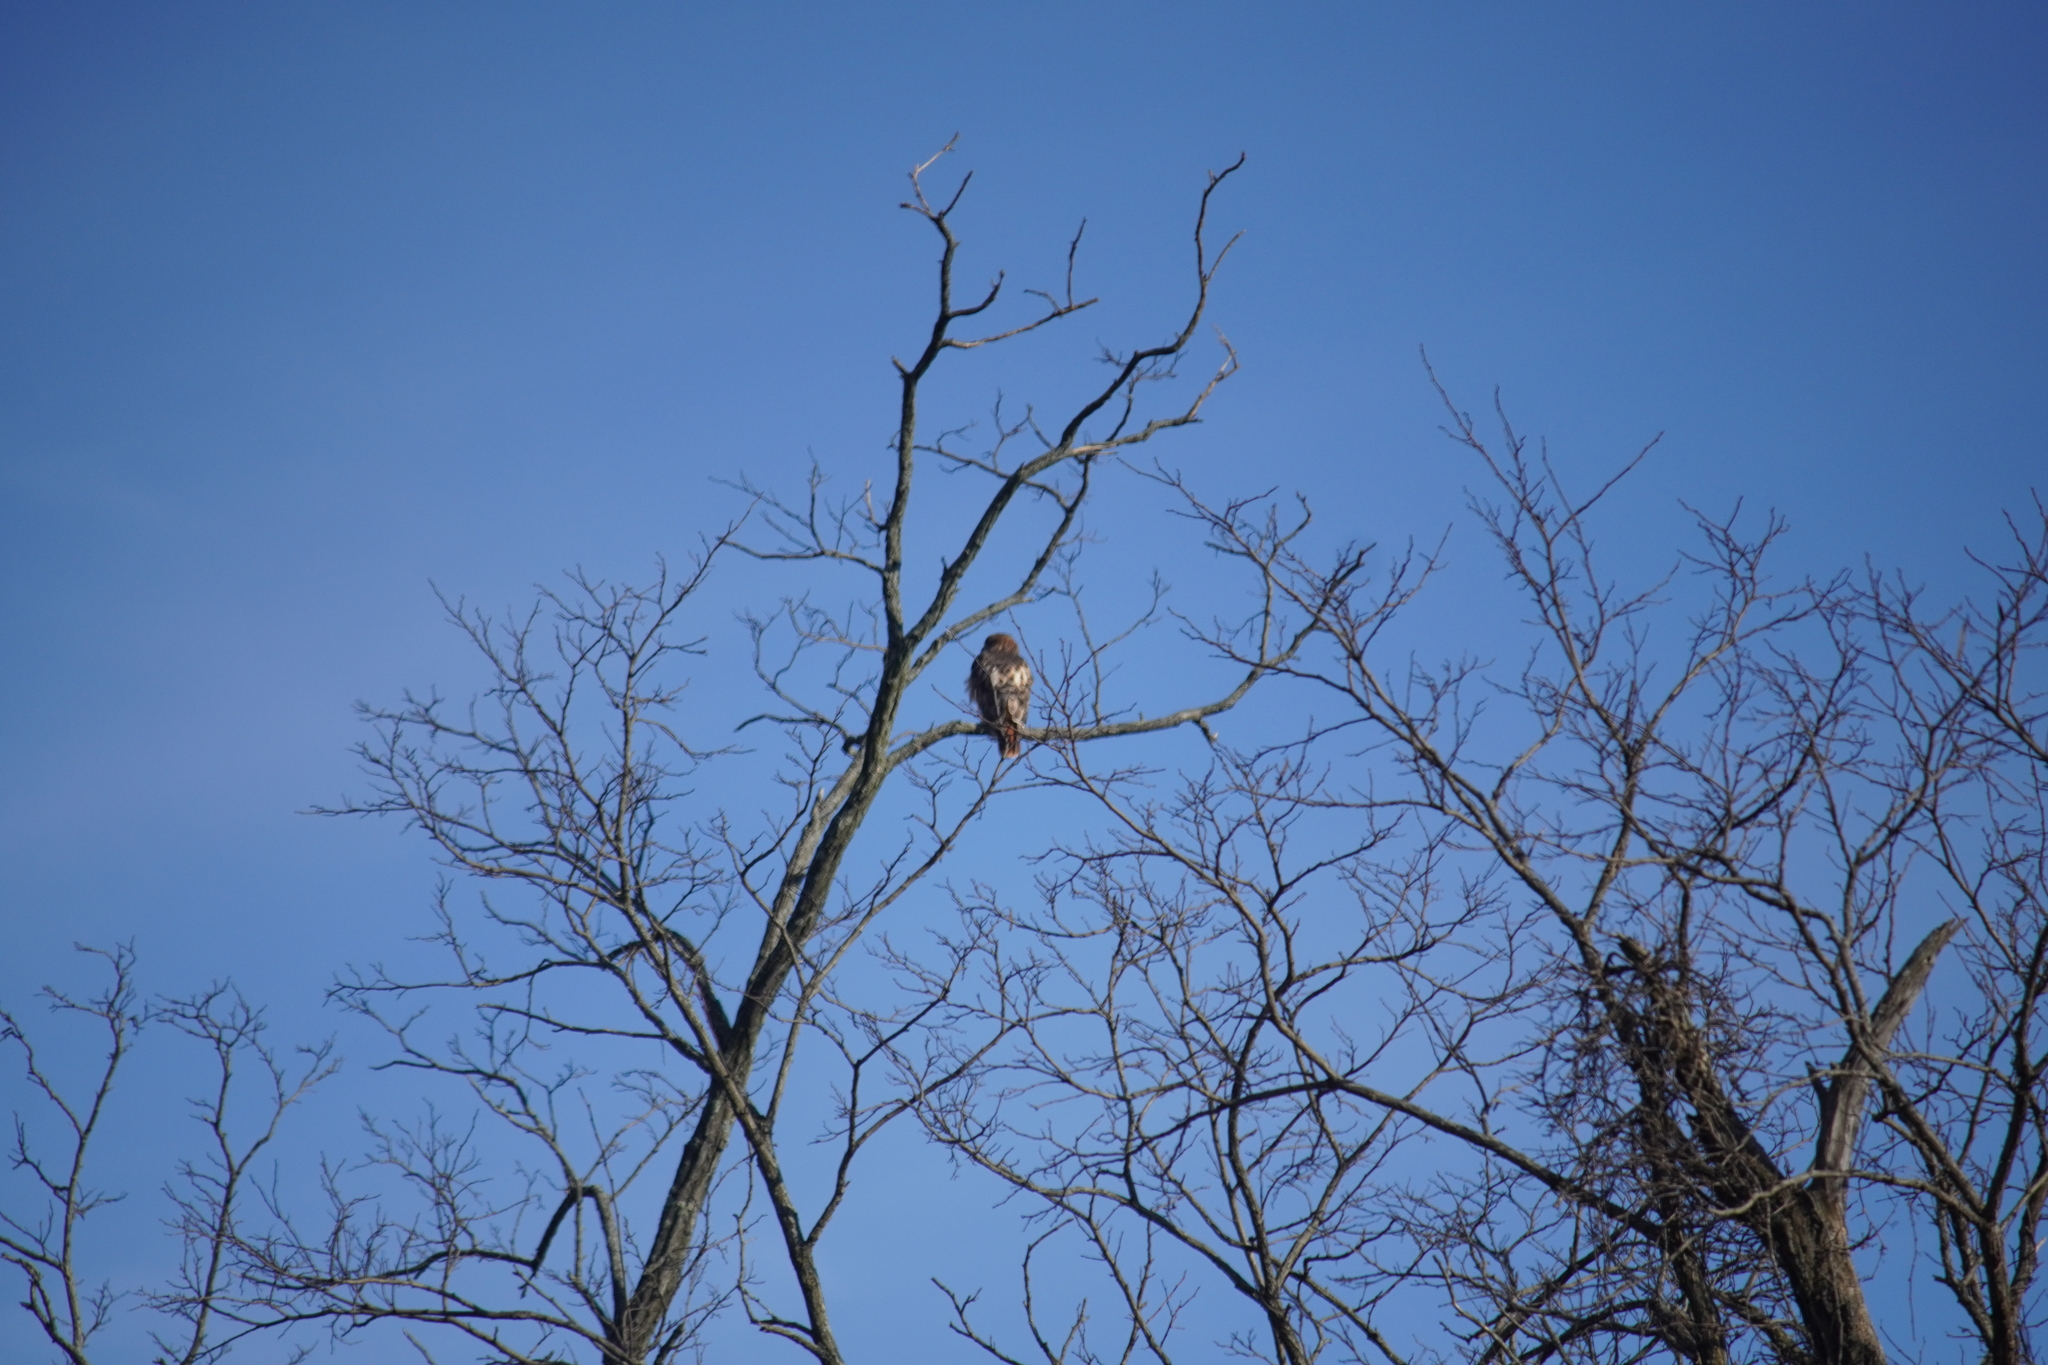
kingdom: Animalia
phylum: Chordata
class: Aves
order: Accipitriformes
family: Accipitridae
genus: Buteo
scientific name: Buteo jamaicensis
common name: Red-tailed hawk
